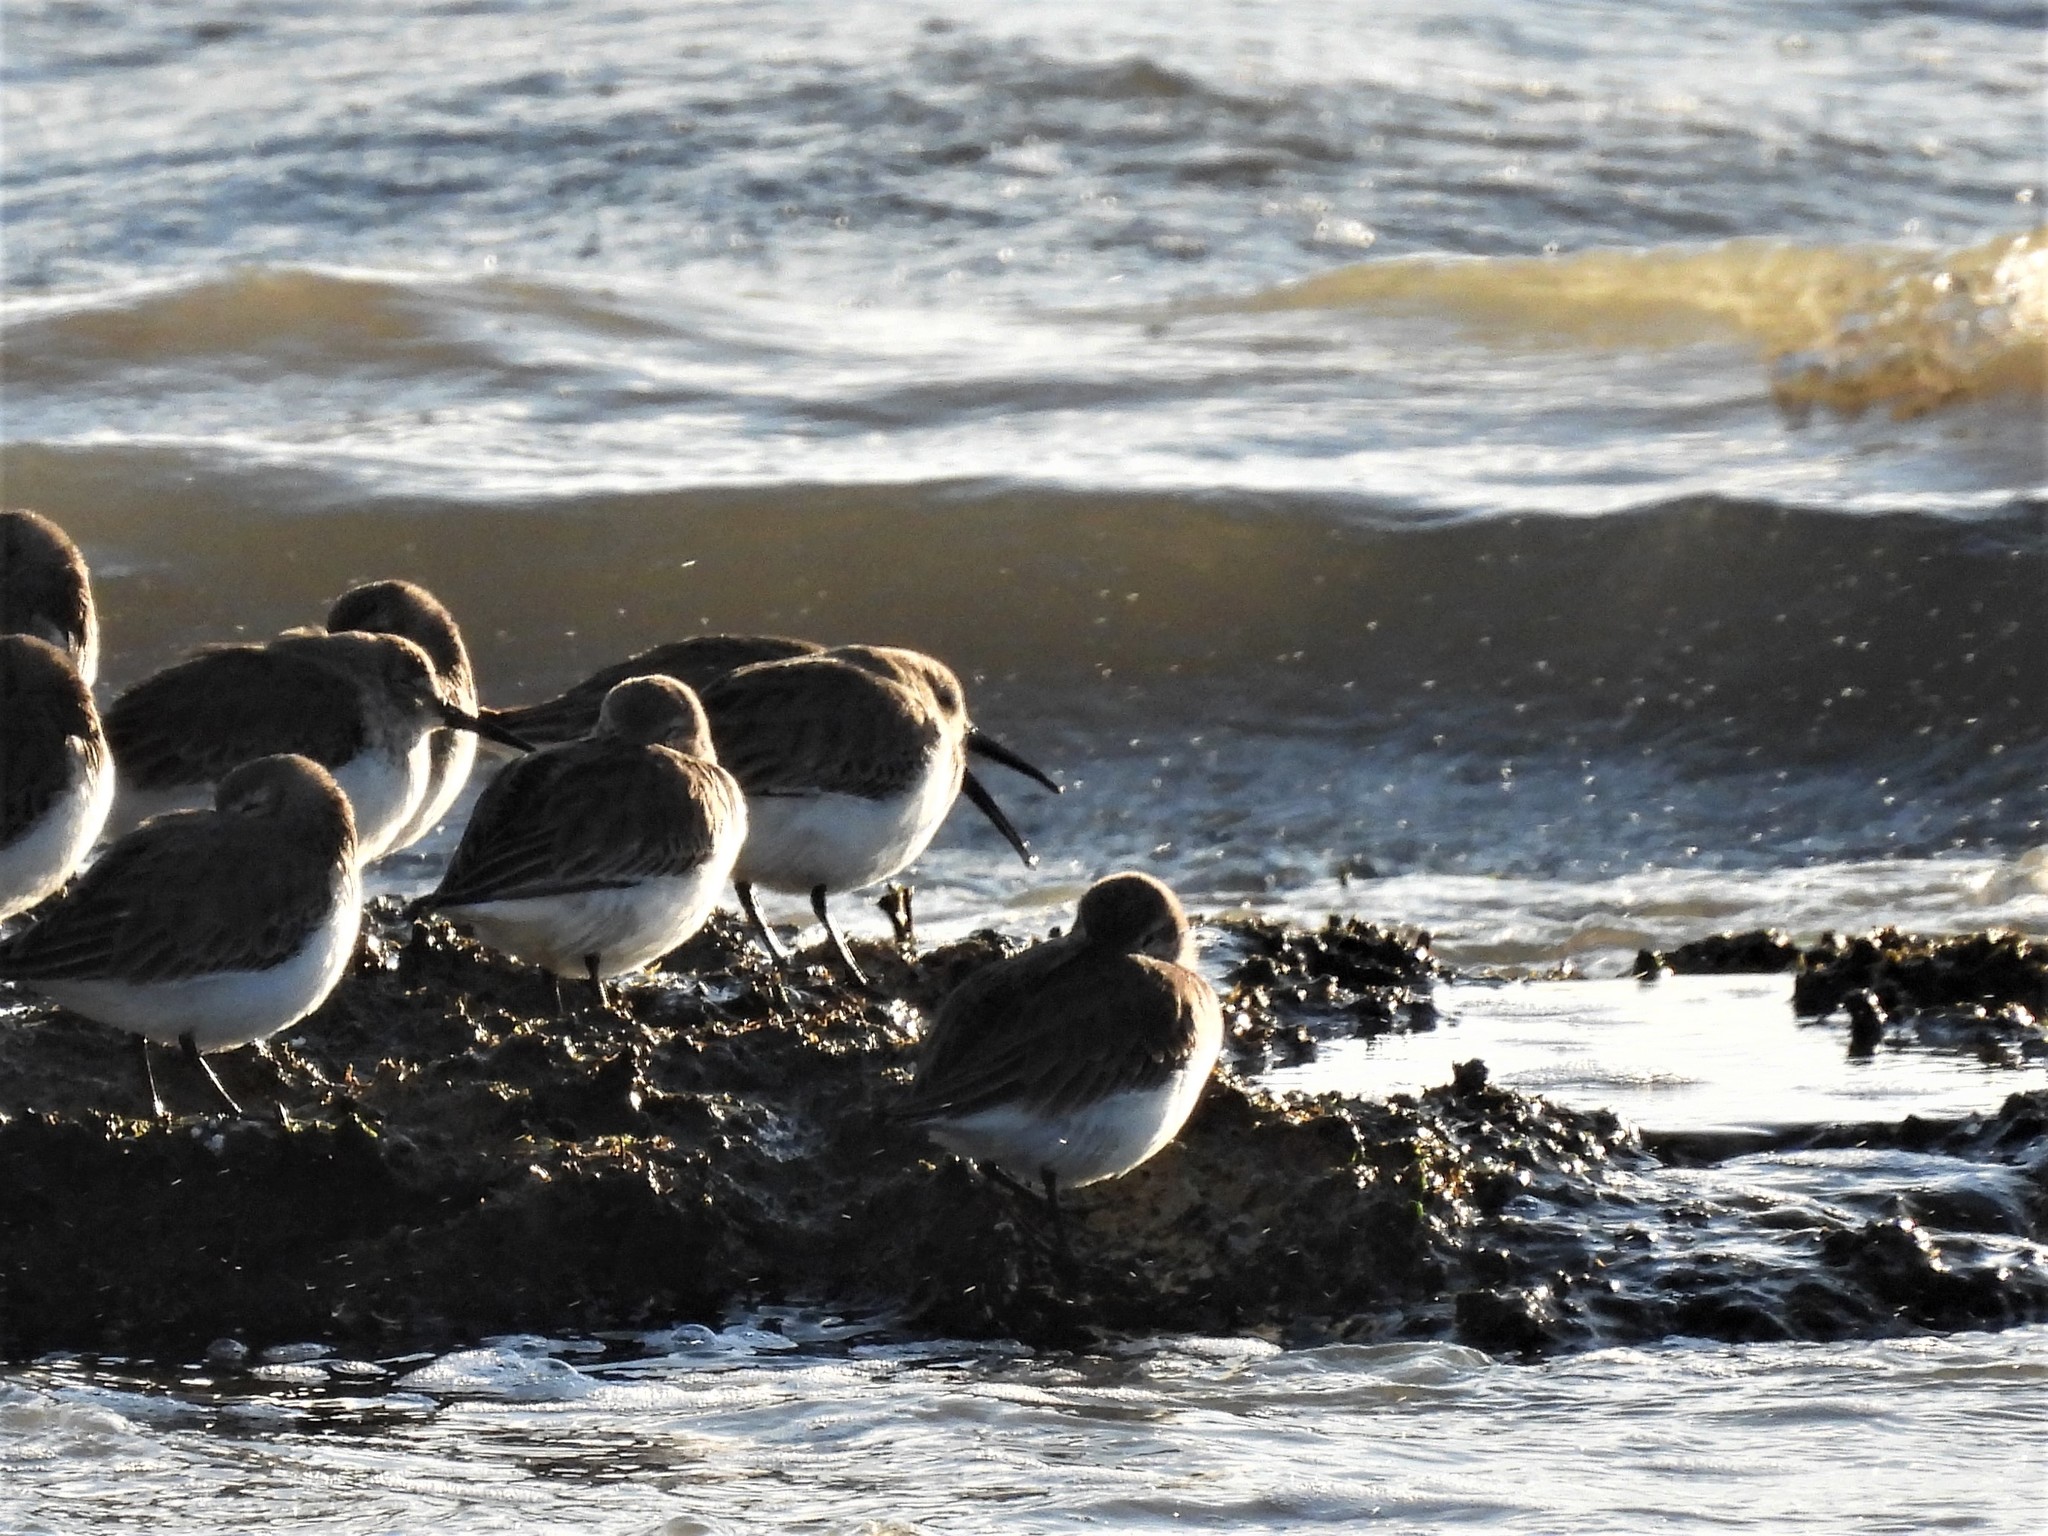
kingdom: Animalia
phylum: Chordata
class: Aves
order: Charadriiformes
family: Scolopacidae
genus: Calidris
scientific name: Calidris alpina
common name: Dunlin
